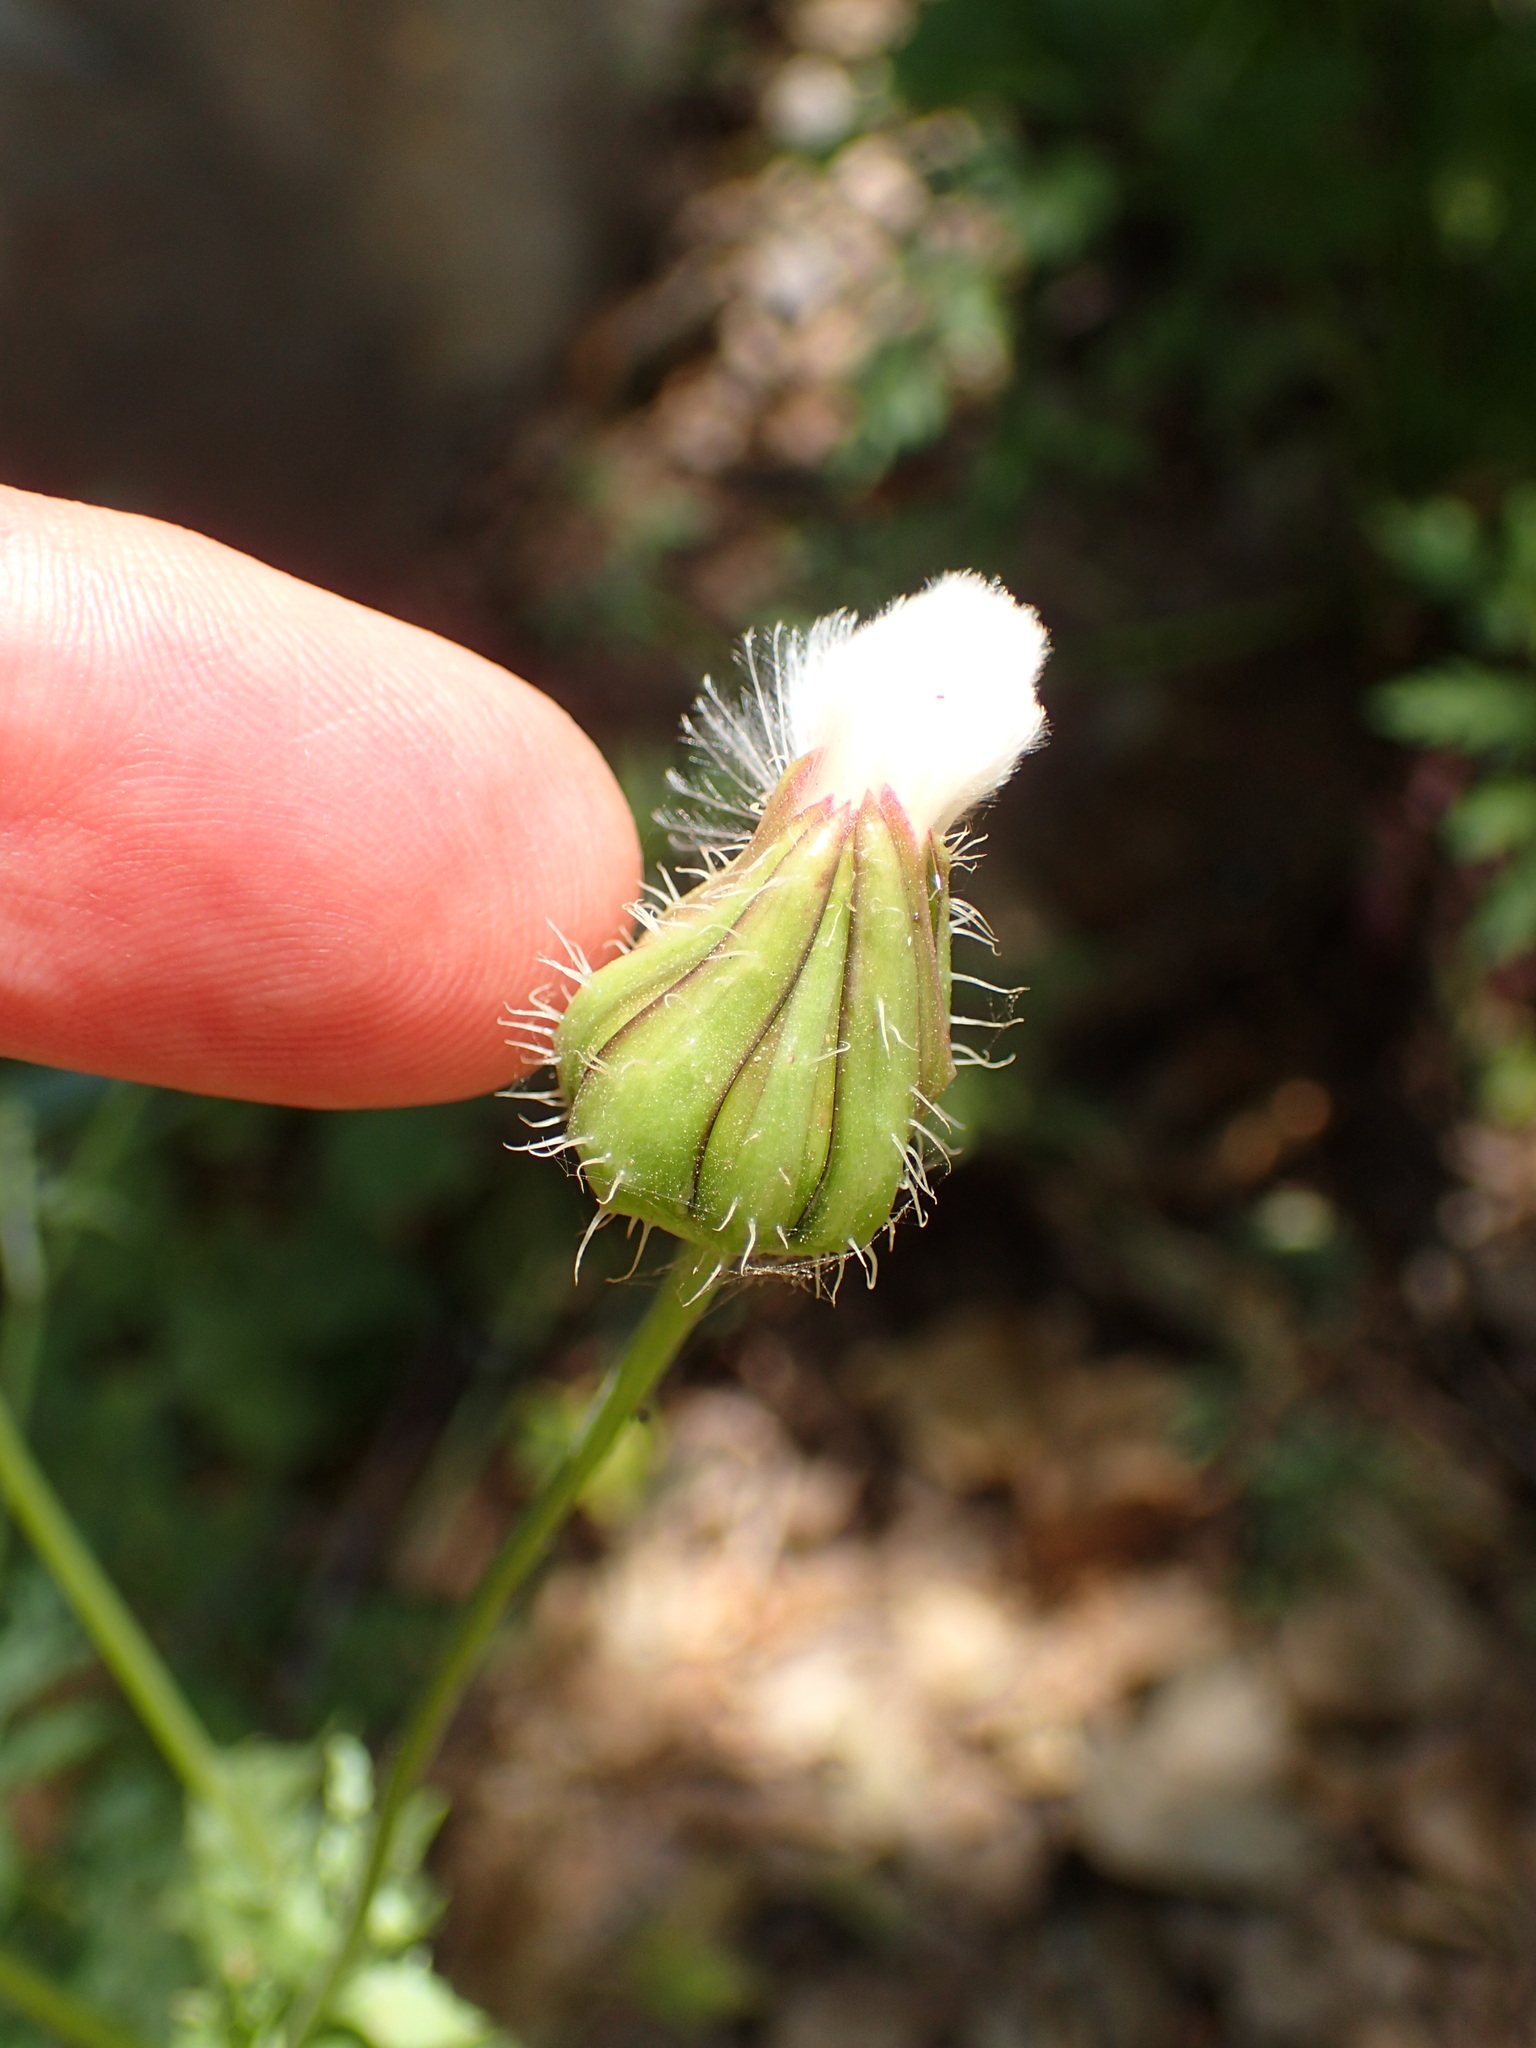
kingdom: Plantae
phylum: Tracheophyta
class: Magnoliopsida
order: Asterales
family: Asteraceae
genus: Urospermum
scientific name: Urospermum picroides
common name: False hawkbit
